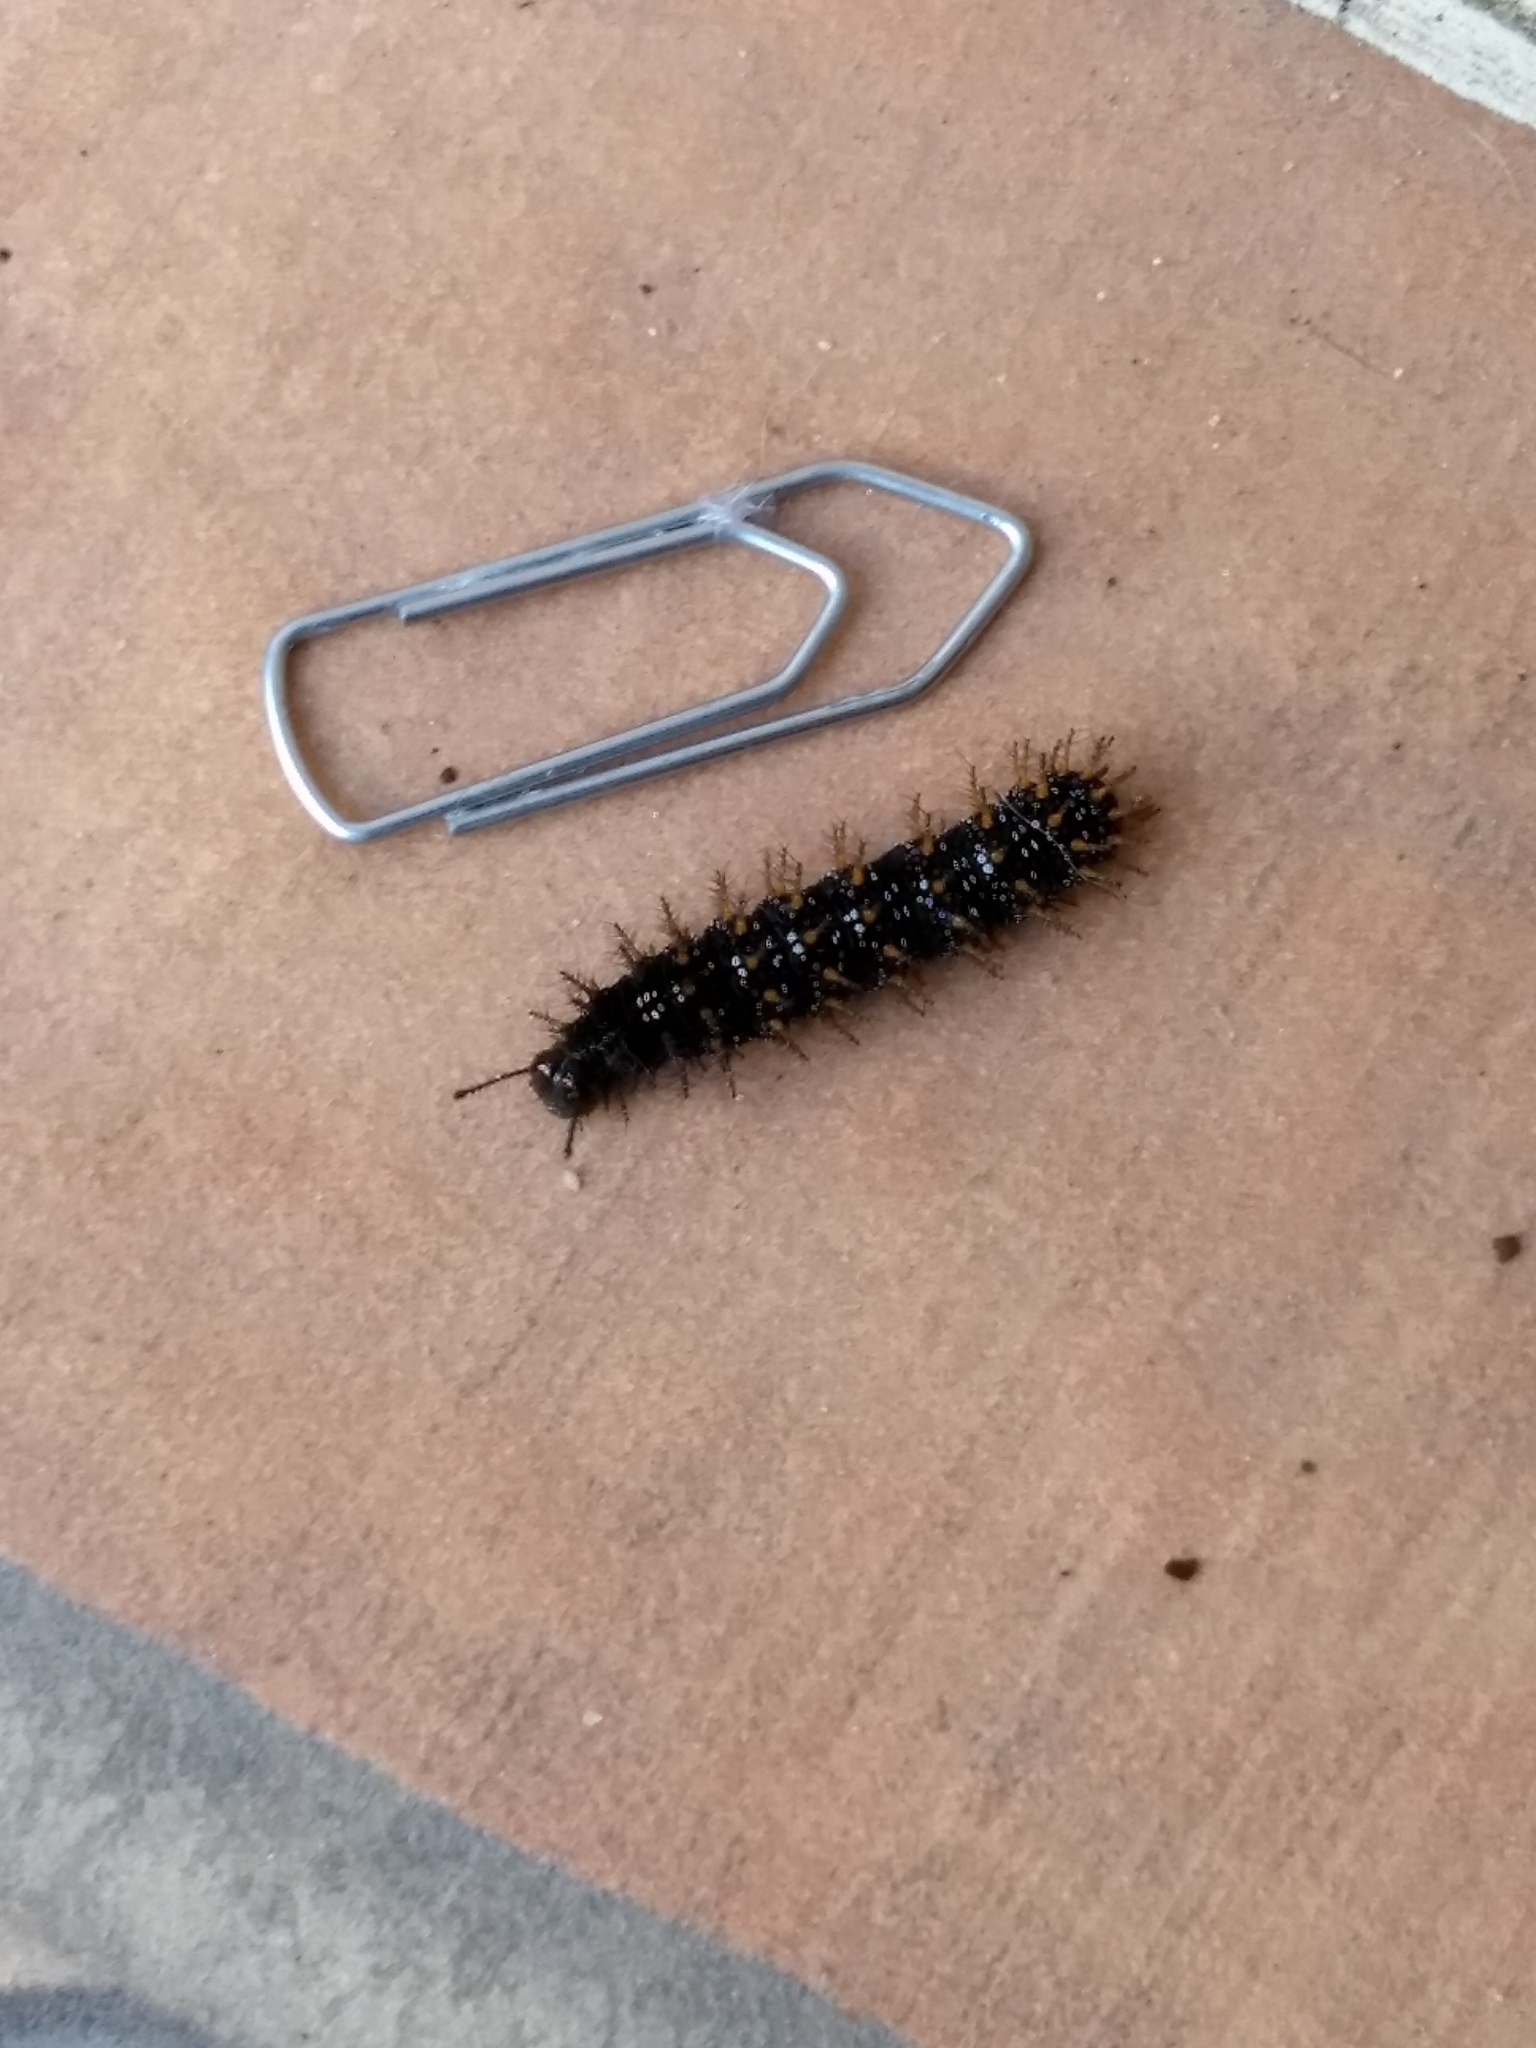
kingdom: Animalia
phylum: Arthropoda
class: Insecta
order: Lepidoptera
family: Nymphalidae
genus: Anartia
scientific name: Anartia jatrophae
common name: White peacock
